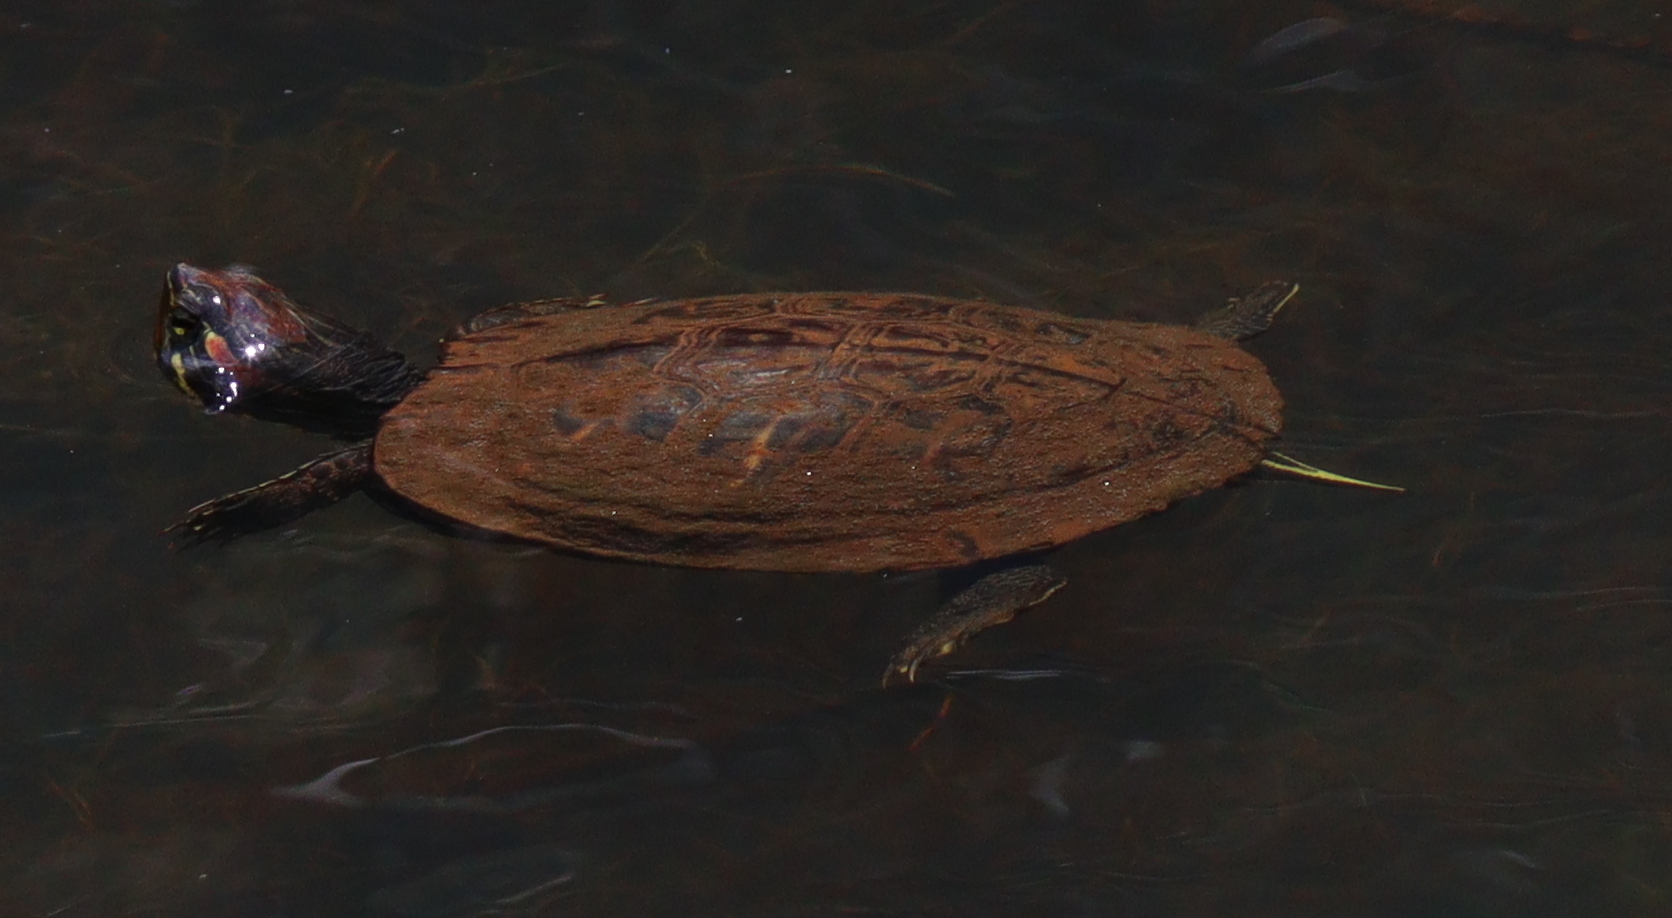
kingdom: Animalia
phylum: Chordata
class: Testudines
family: Emydidae
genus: Trachemys
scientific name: Trachemys scripta
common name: Slider
